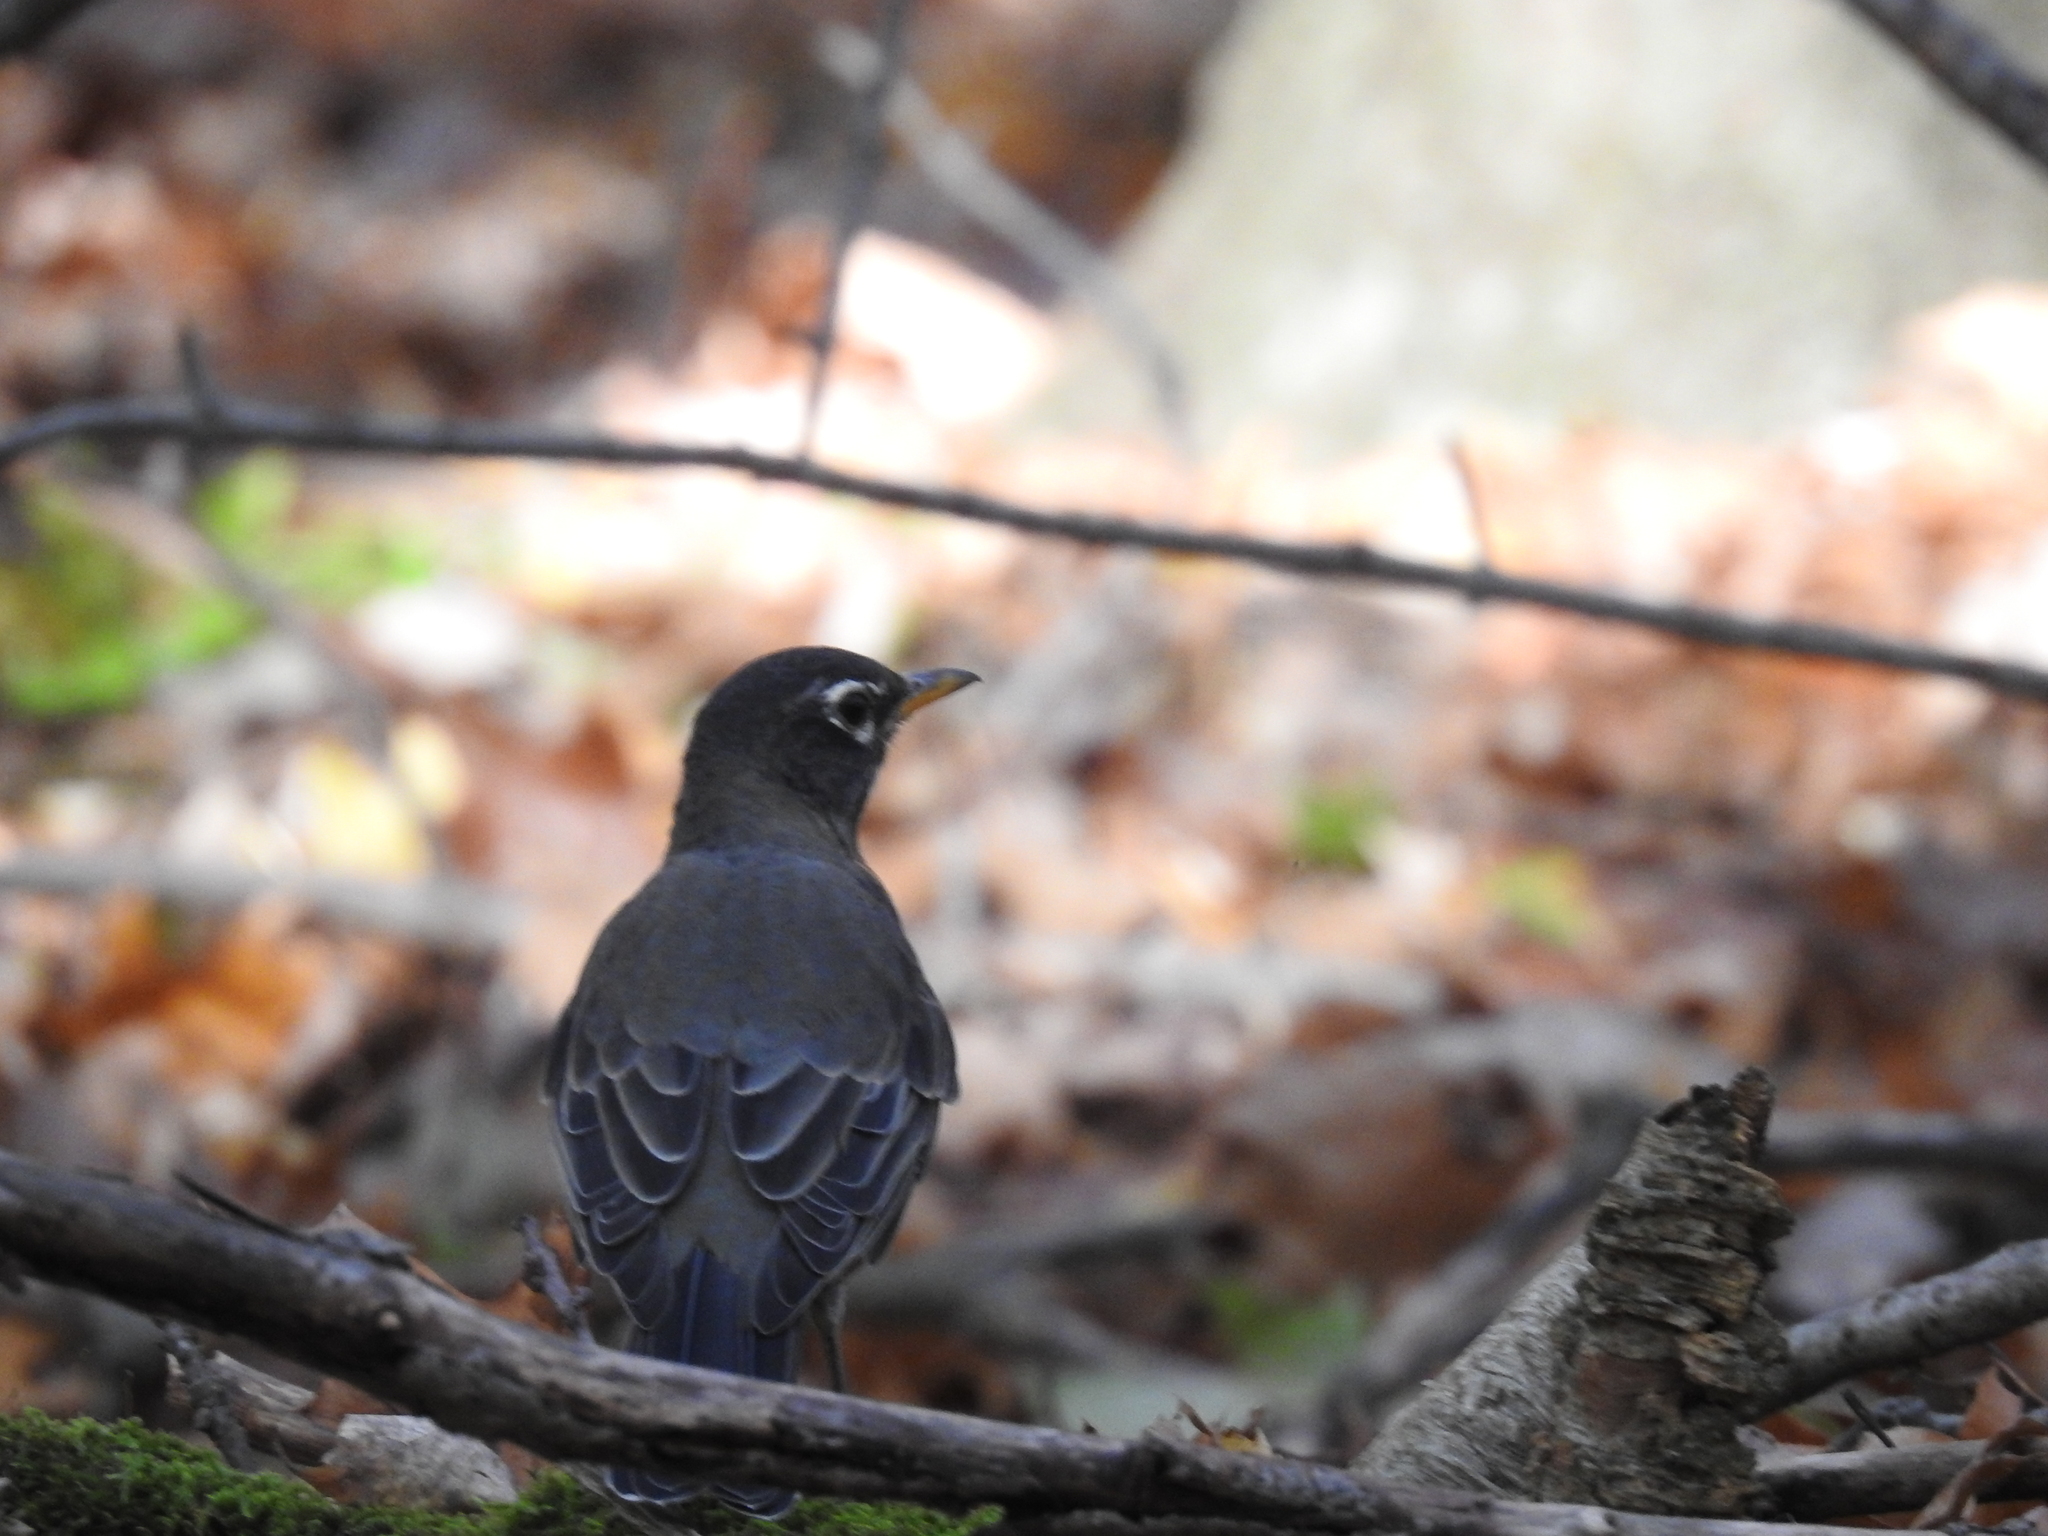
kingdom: Animalia
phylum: Chordata
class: Aves
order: Passeriformes
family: Turdidae
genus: Turdus
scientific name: Turdus migratorius
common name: American robin
